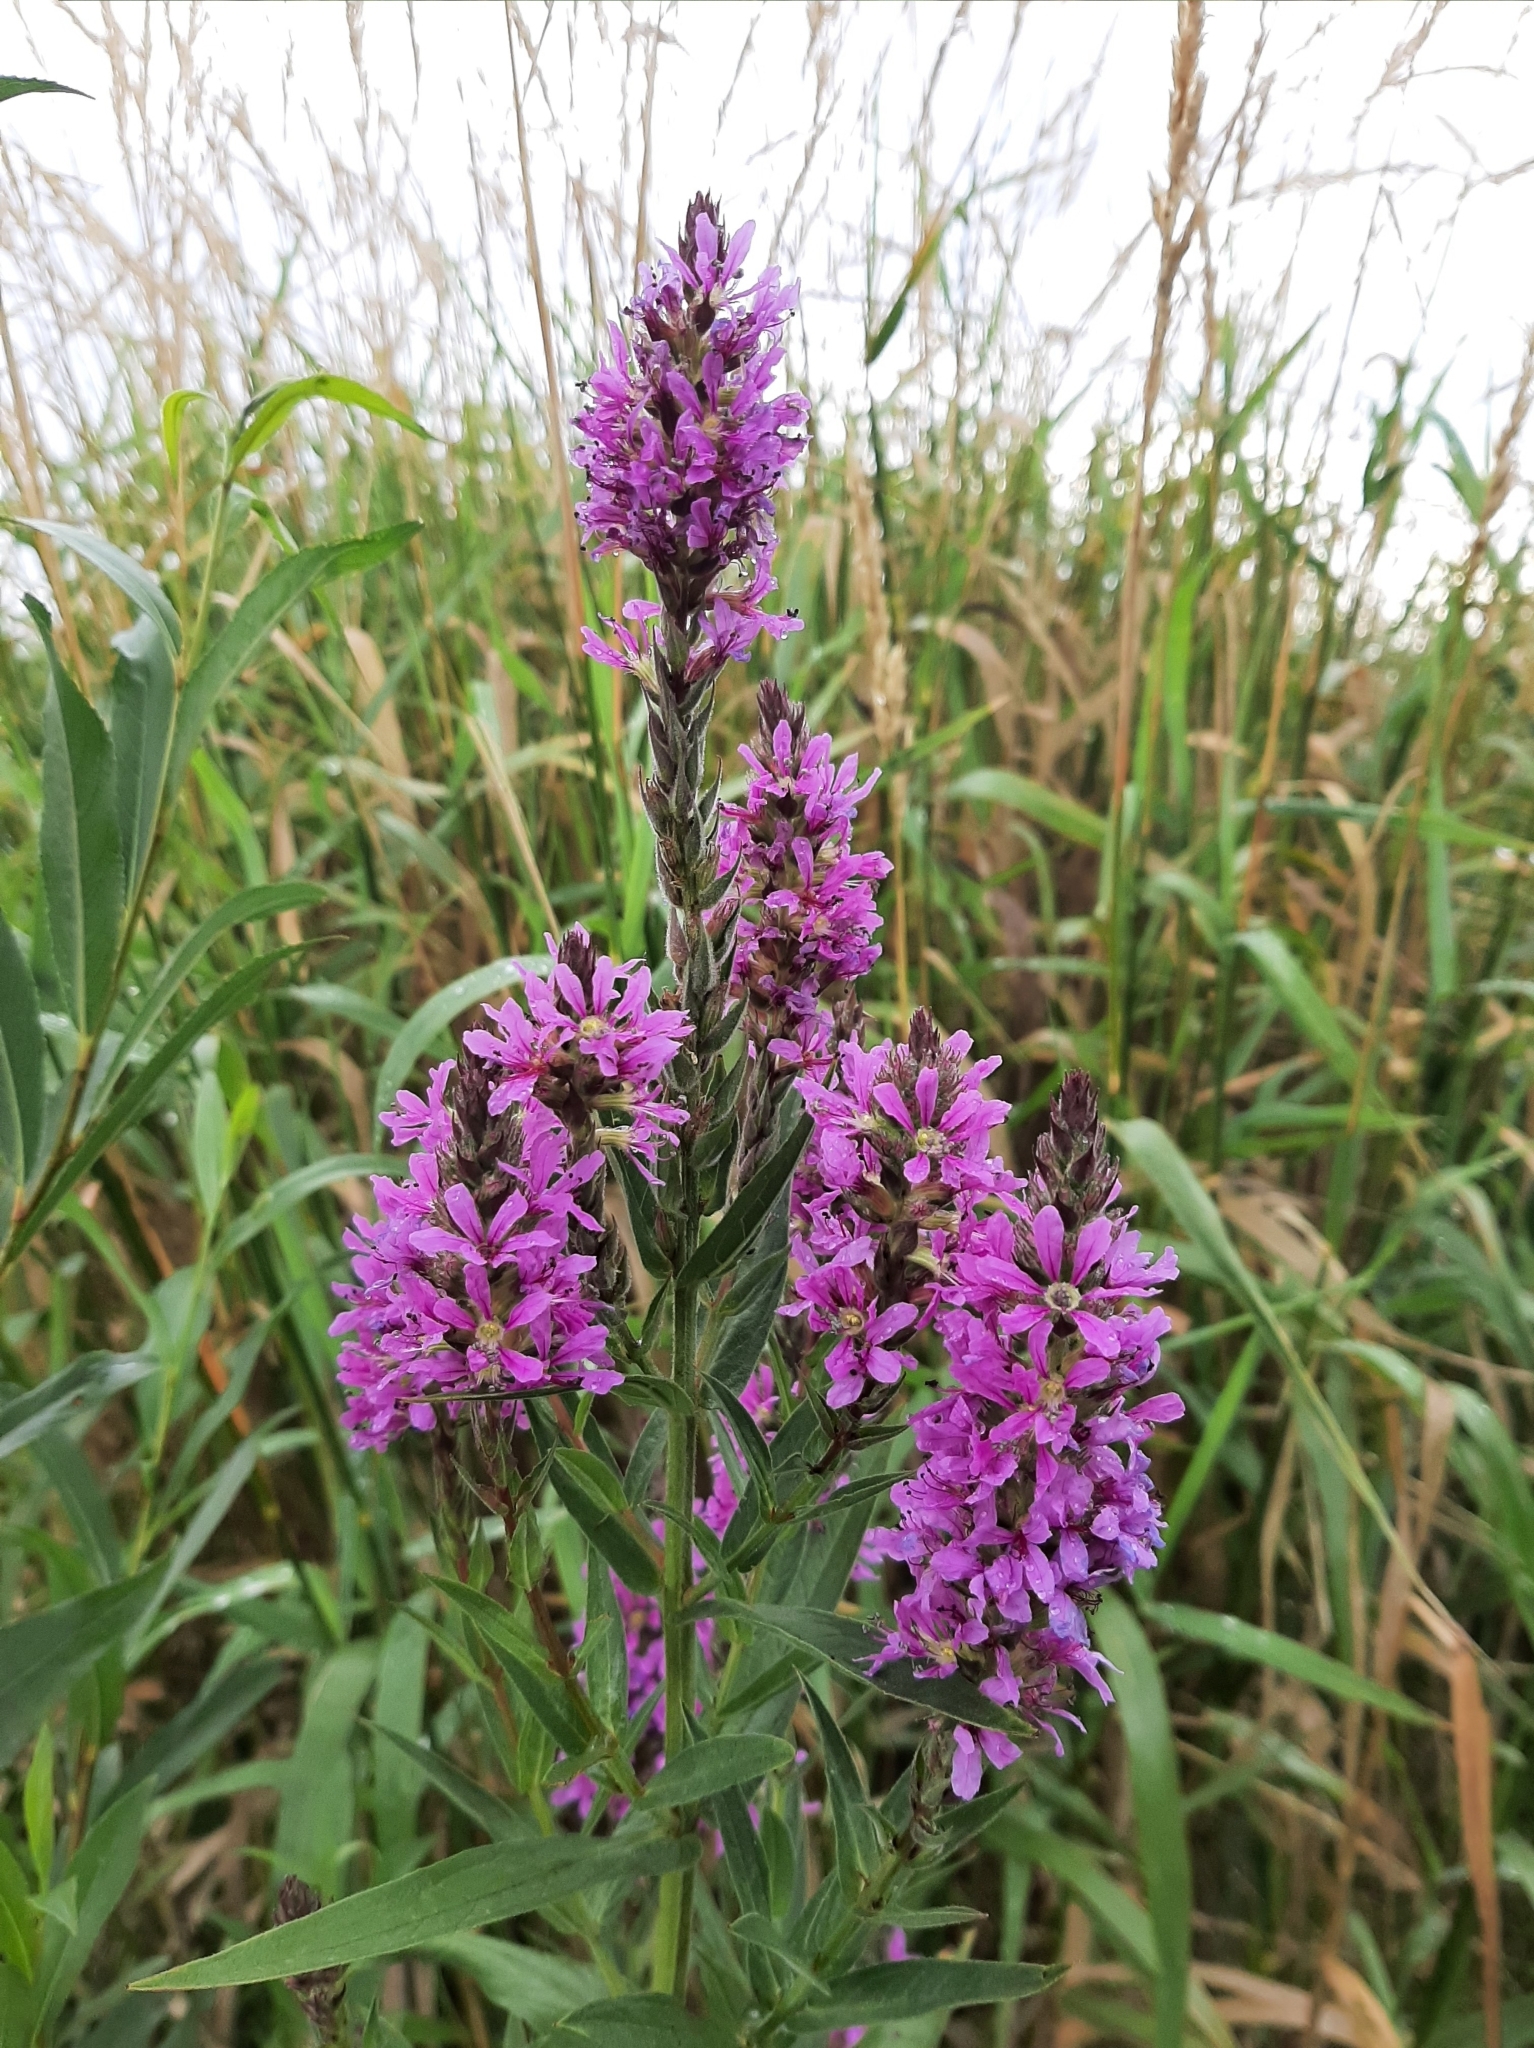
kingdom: Plantae
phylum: Tracheophyta
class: Magnoliopsida
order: Myrtales
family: Lythraceae
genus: Lythrum
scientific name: Lythrum salicaria
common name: Purple loosestrife
